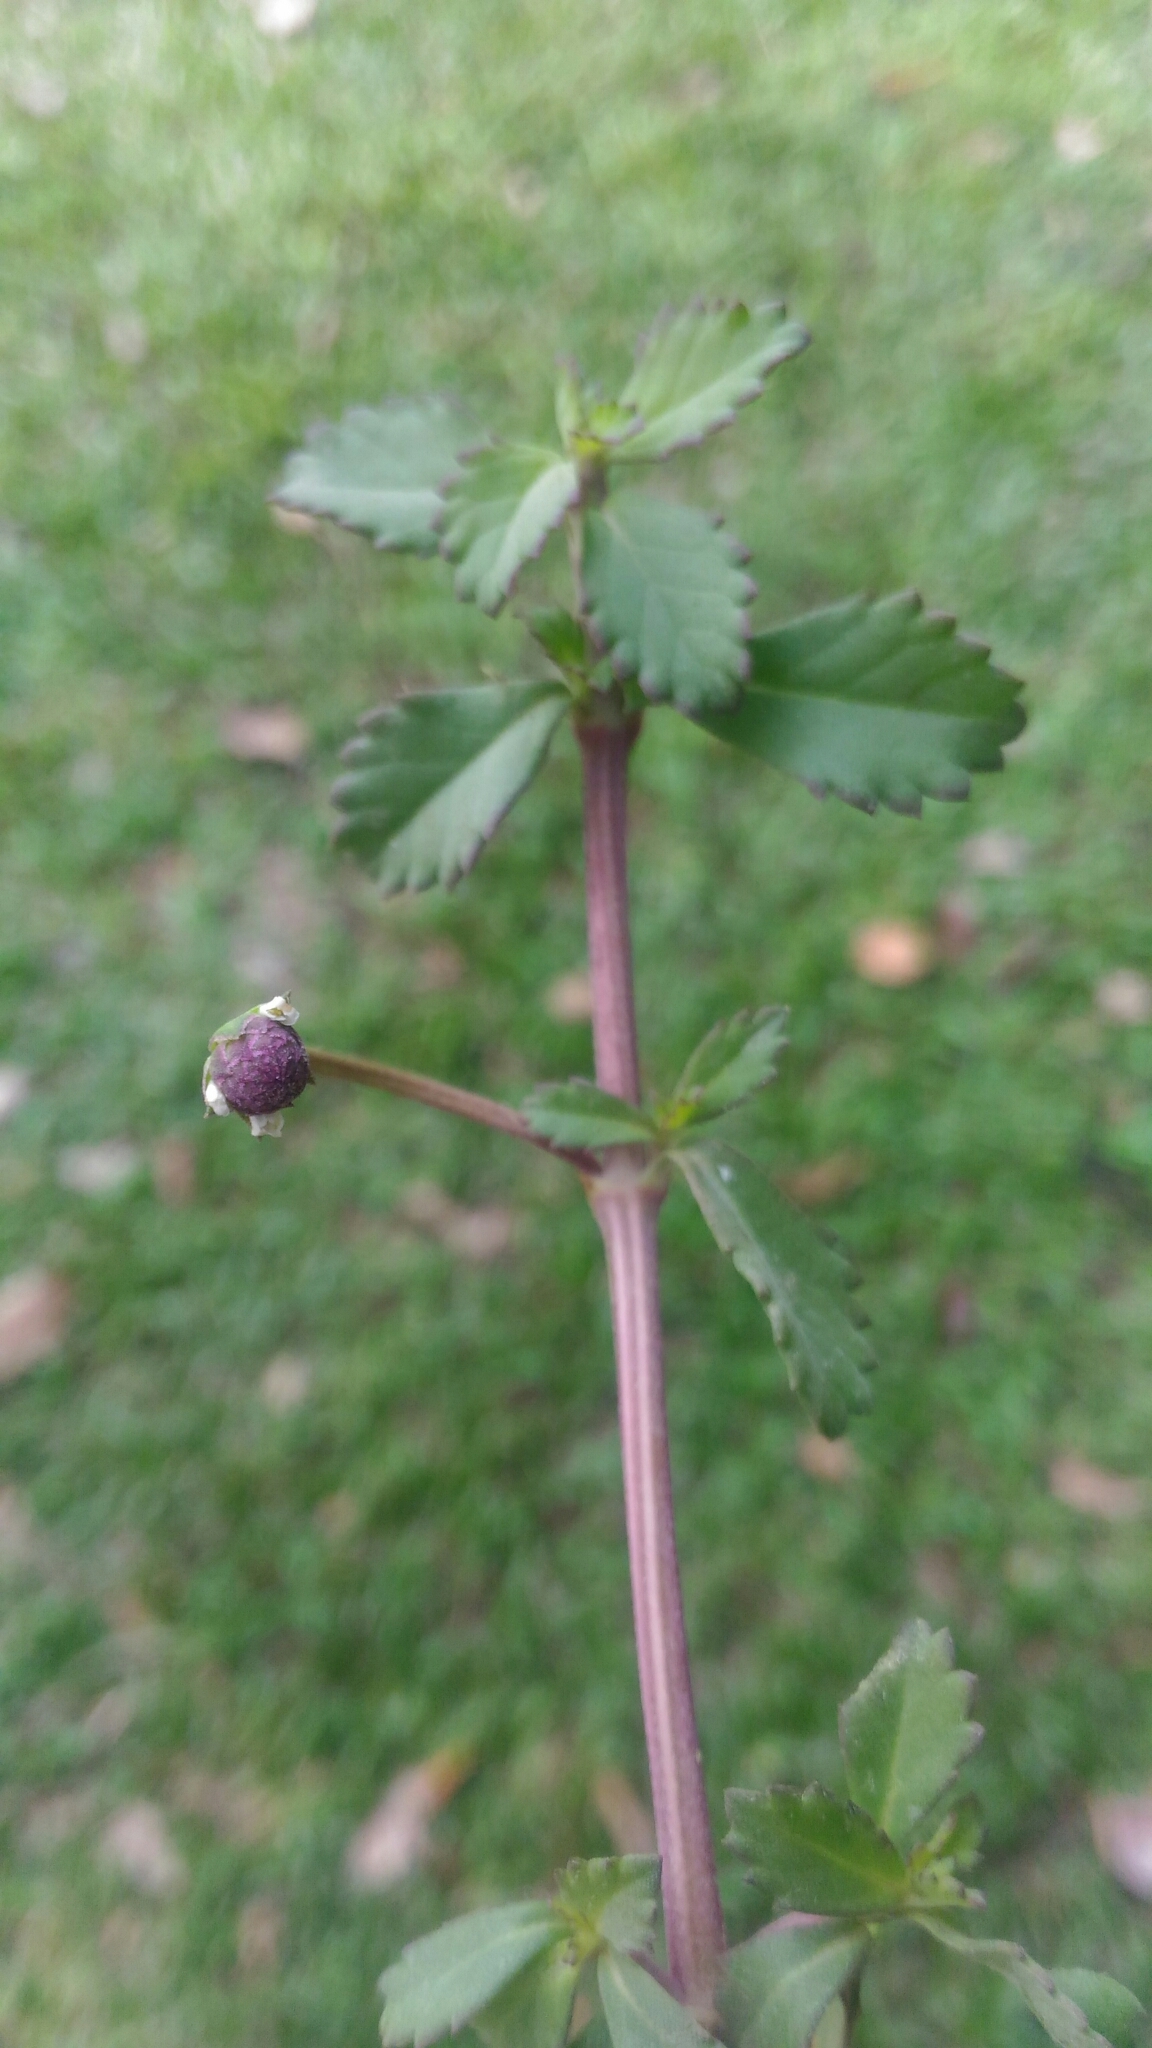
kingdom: Plantae
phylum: Tracheophyta
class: Magnoliopsida
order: Lamiales
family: Verbenaceae
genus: Phyla
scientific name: Phyla nodiflora
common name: Frogfruit
